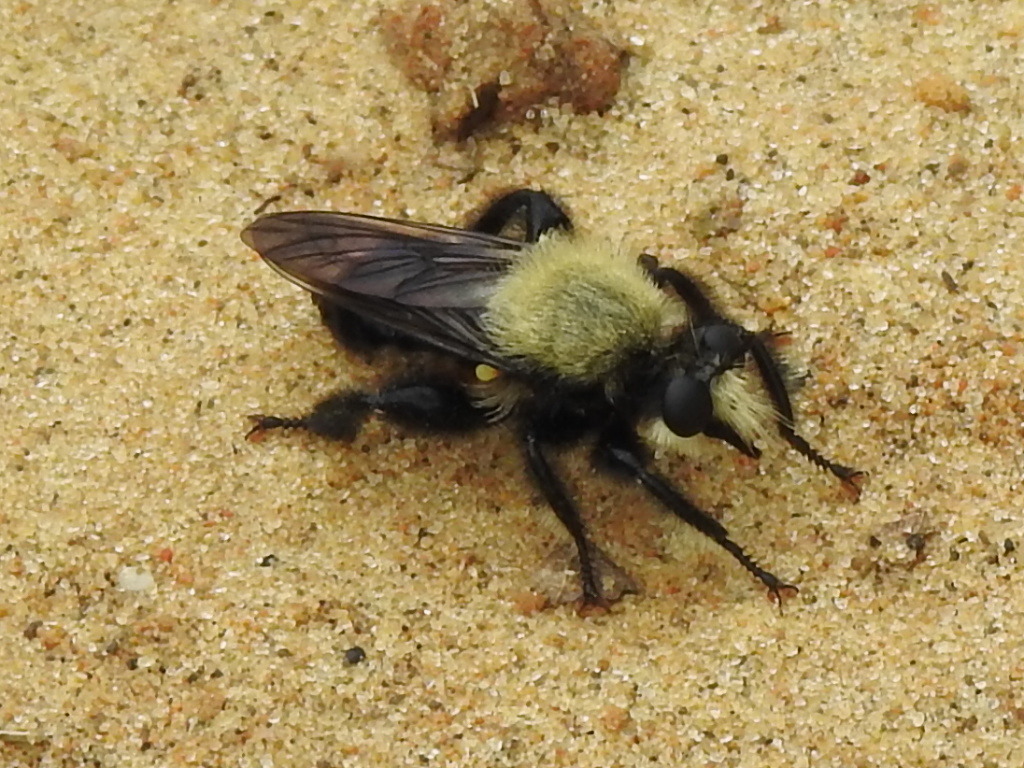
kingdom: Animalia
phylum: Arthropoda
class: Insecta
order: Diptera
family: Asilidae
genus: Laphria
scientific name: Laphria flavicollis
